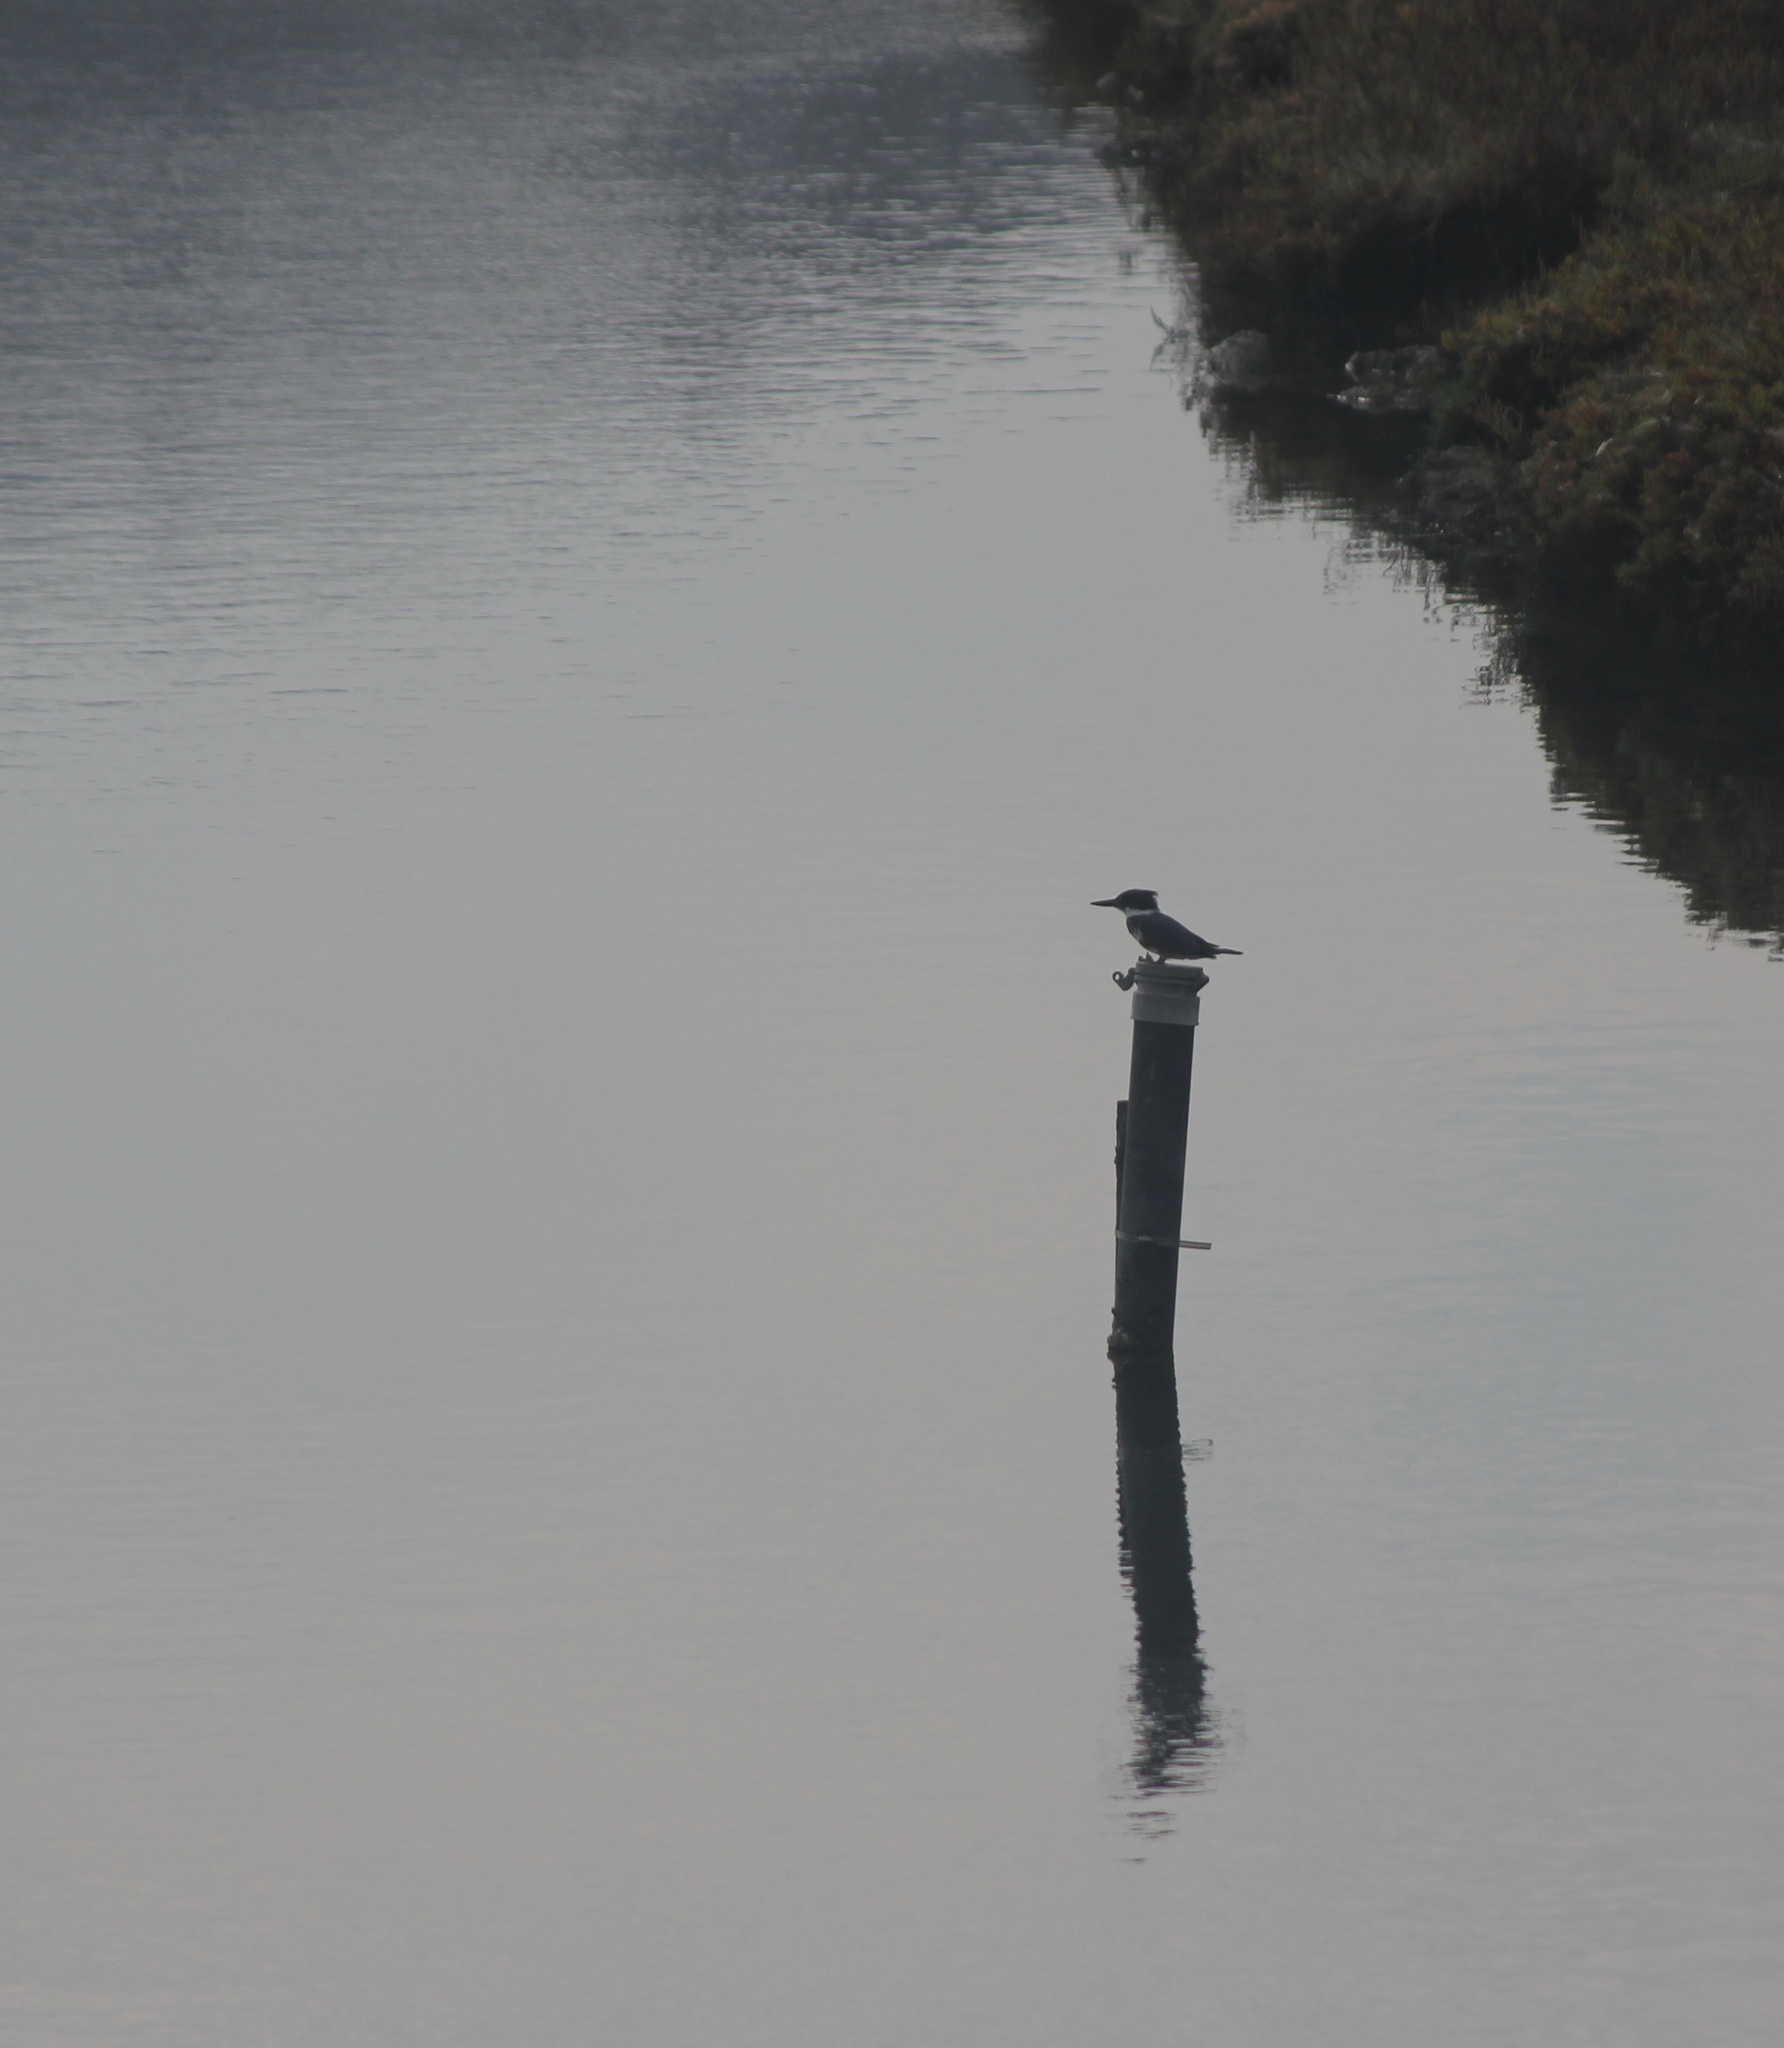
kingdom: Animalia
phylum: Chordata
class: Aves
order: Coraciiformes
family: Alcedinidae
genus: Megaceryle
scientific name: Megaceryle alcyon
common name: Belted kingfisher
